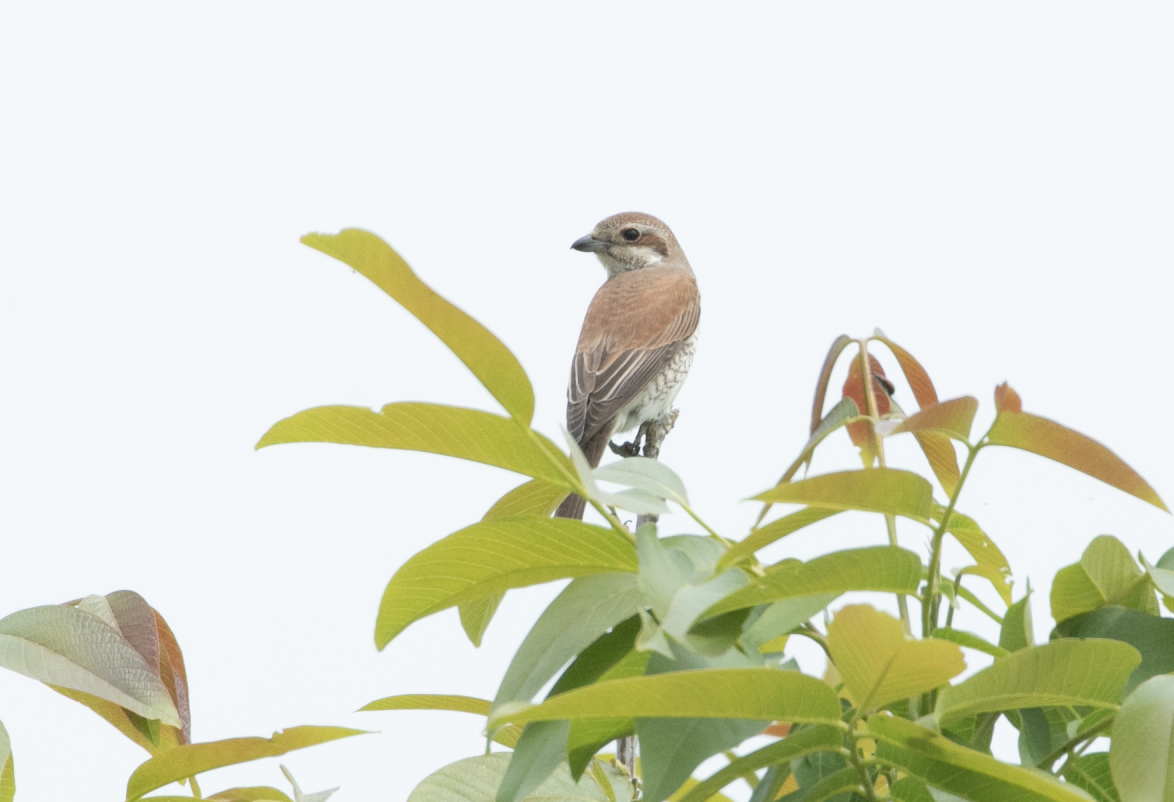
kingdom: Animalia
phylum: Chordata
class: Aves
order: Passeriformes
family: Laniidae
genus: Lanius
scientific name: Lanius collurio
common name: Red-backed shrike
